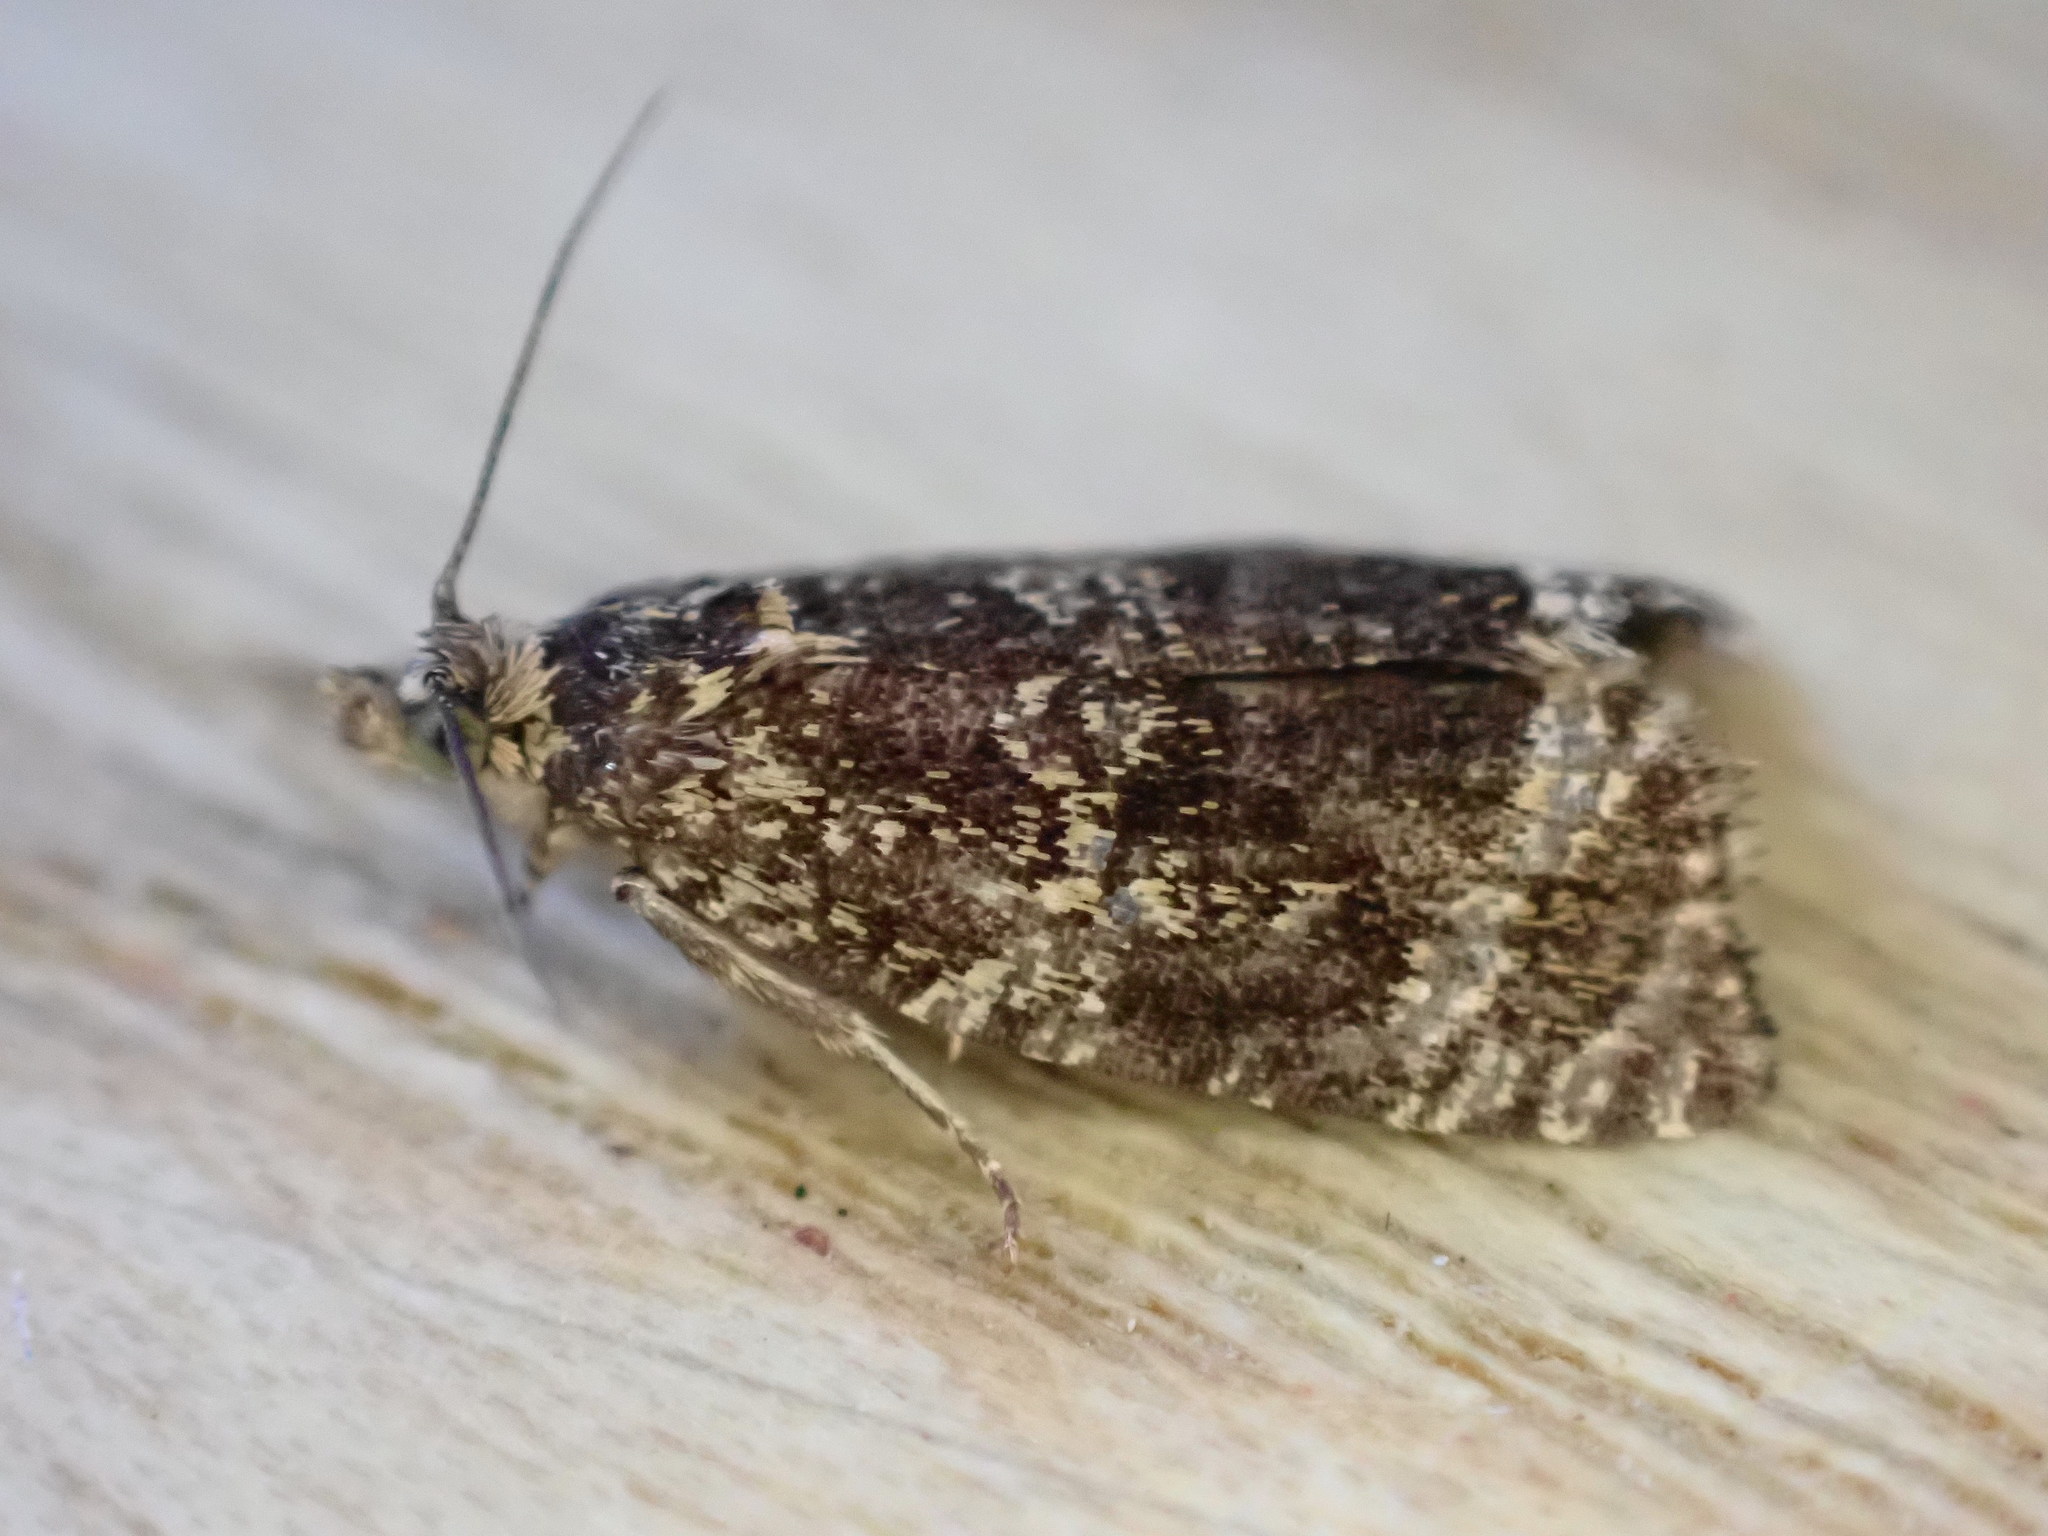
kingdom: Animalia
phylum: Arthropoda
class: Insecta
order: Lepidoptera
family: Tortricidae
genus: Syricoris
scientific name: Syricoris lacunana
